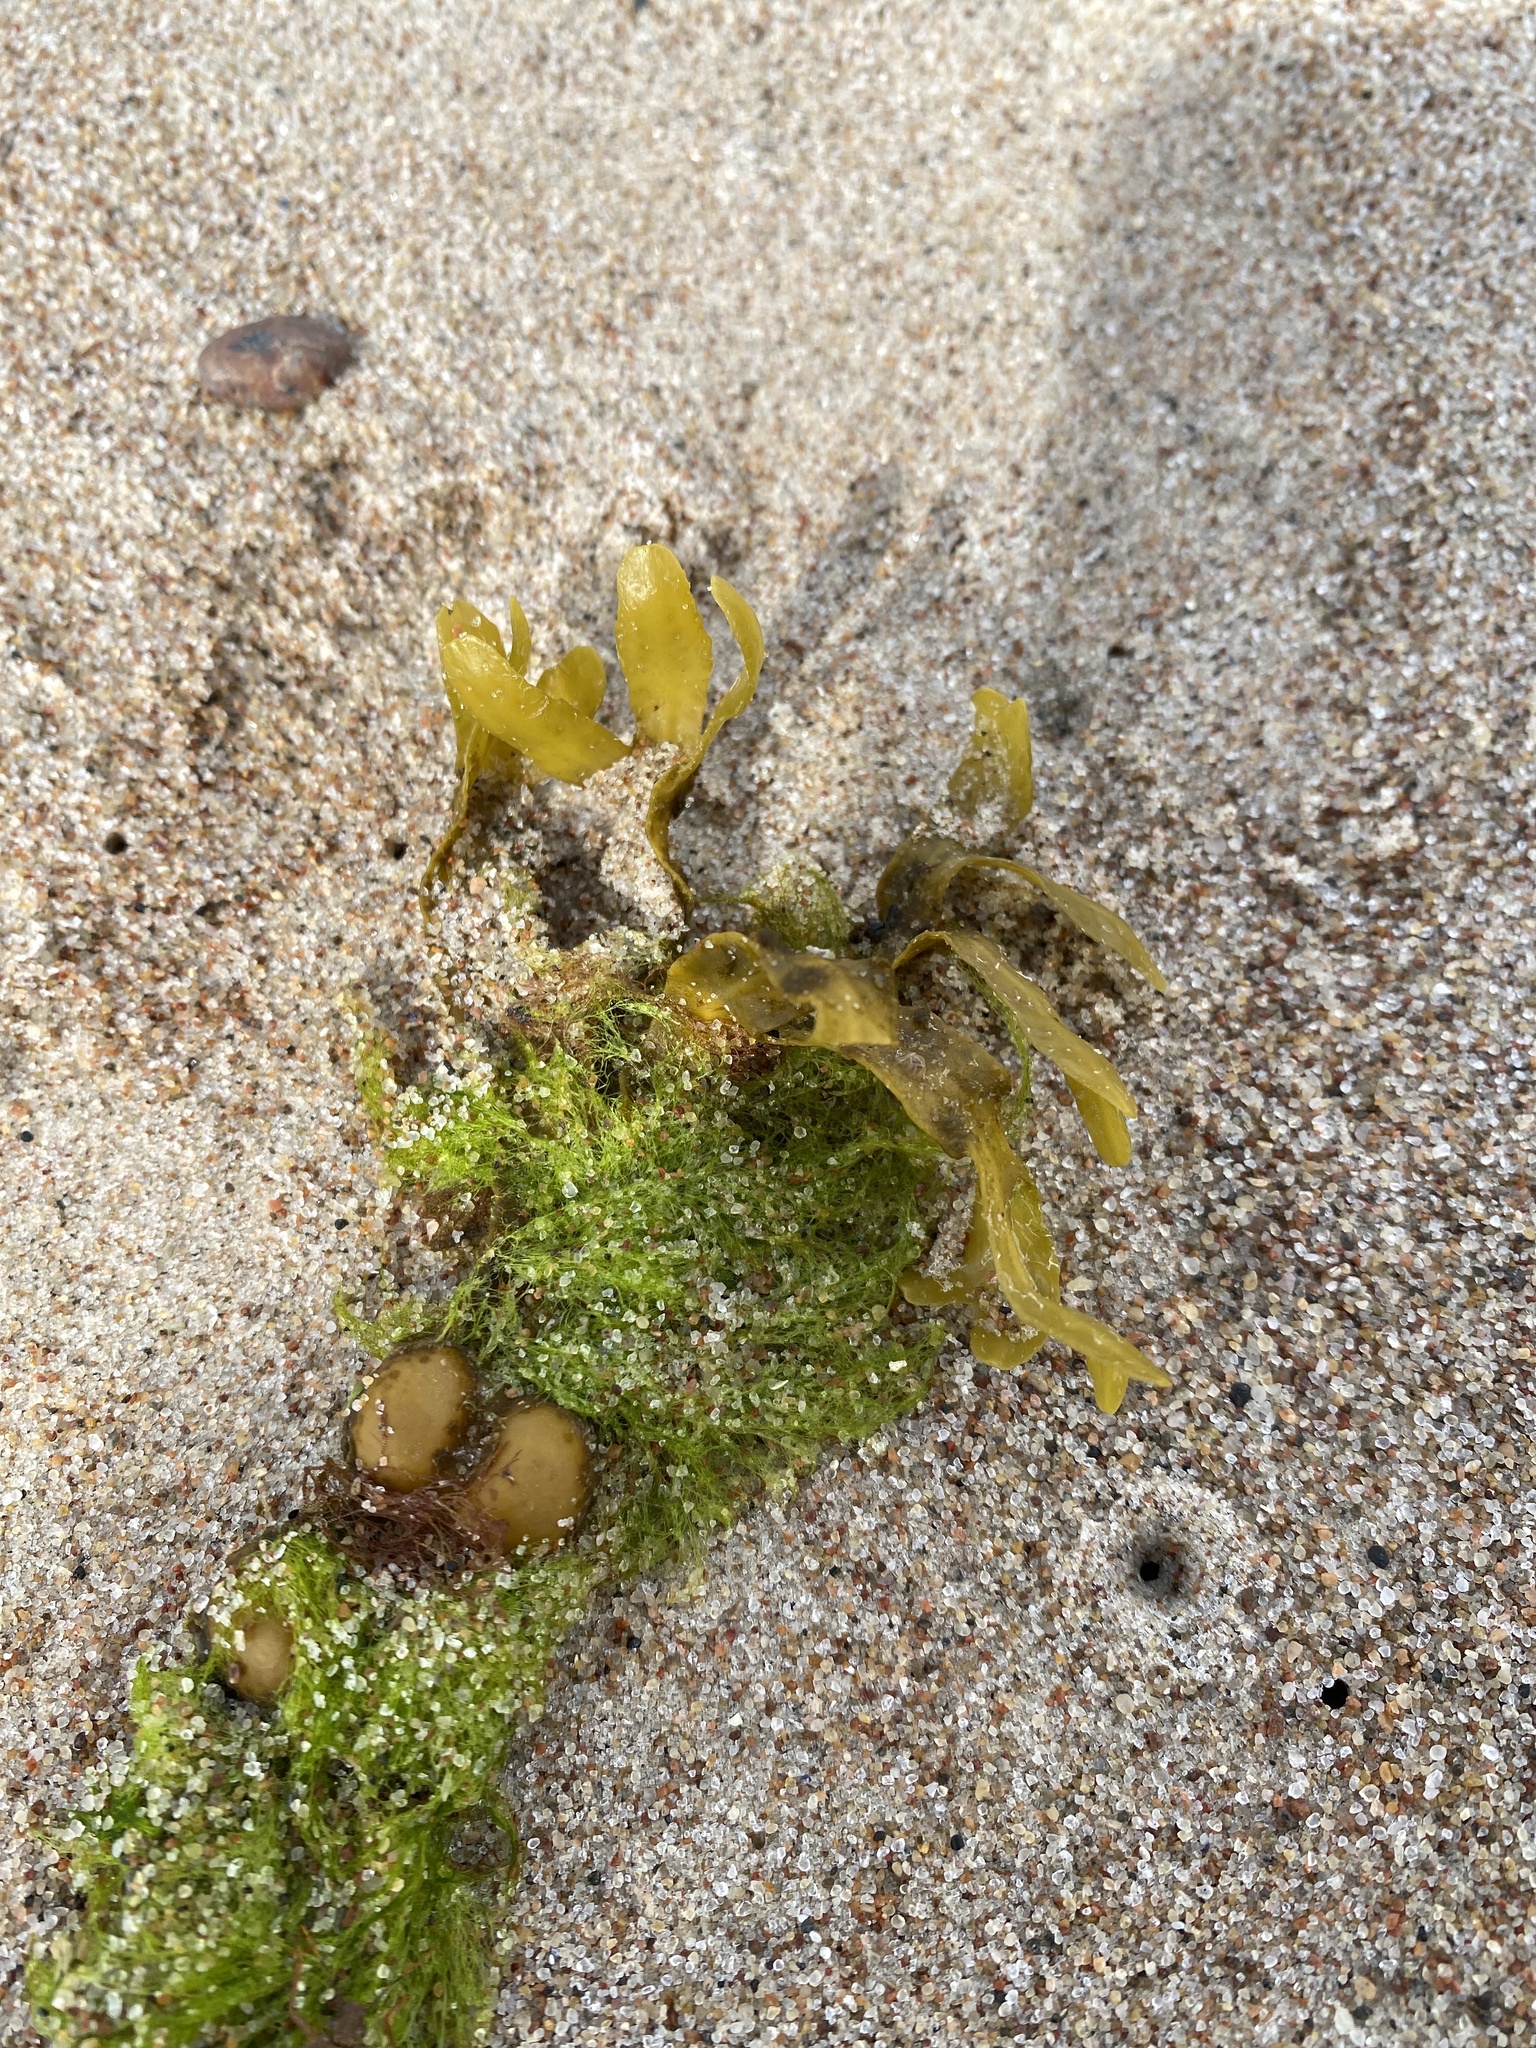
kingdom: Chromista
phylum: Ochrophyta
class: Phaeophyceae
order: Fucales
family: Fucaceae
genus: Fucus
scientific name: Fucus vesiculosus
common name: Bladder wrack
